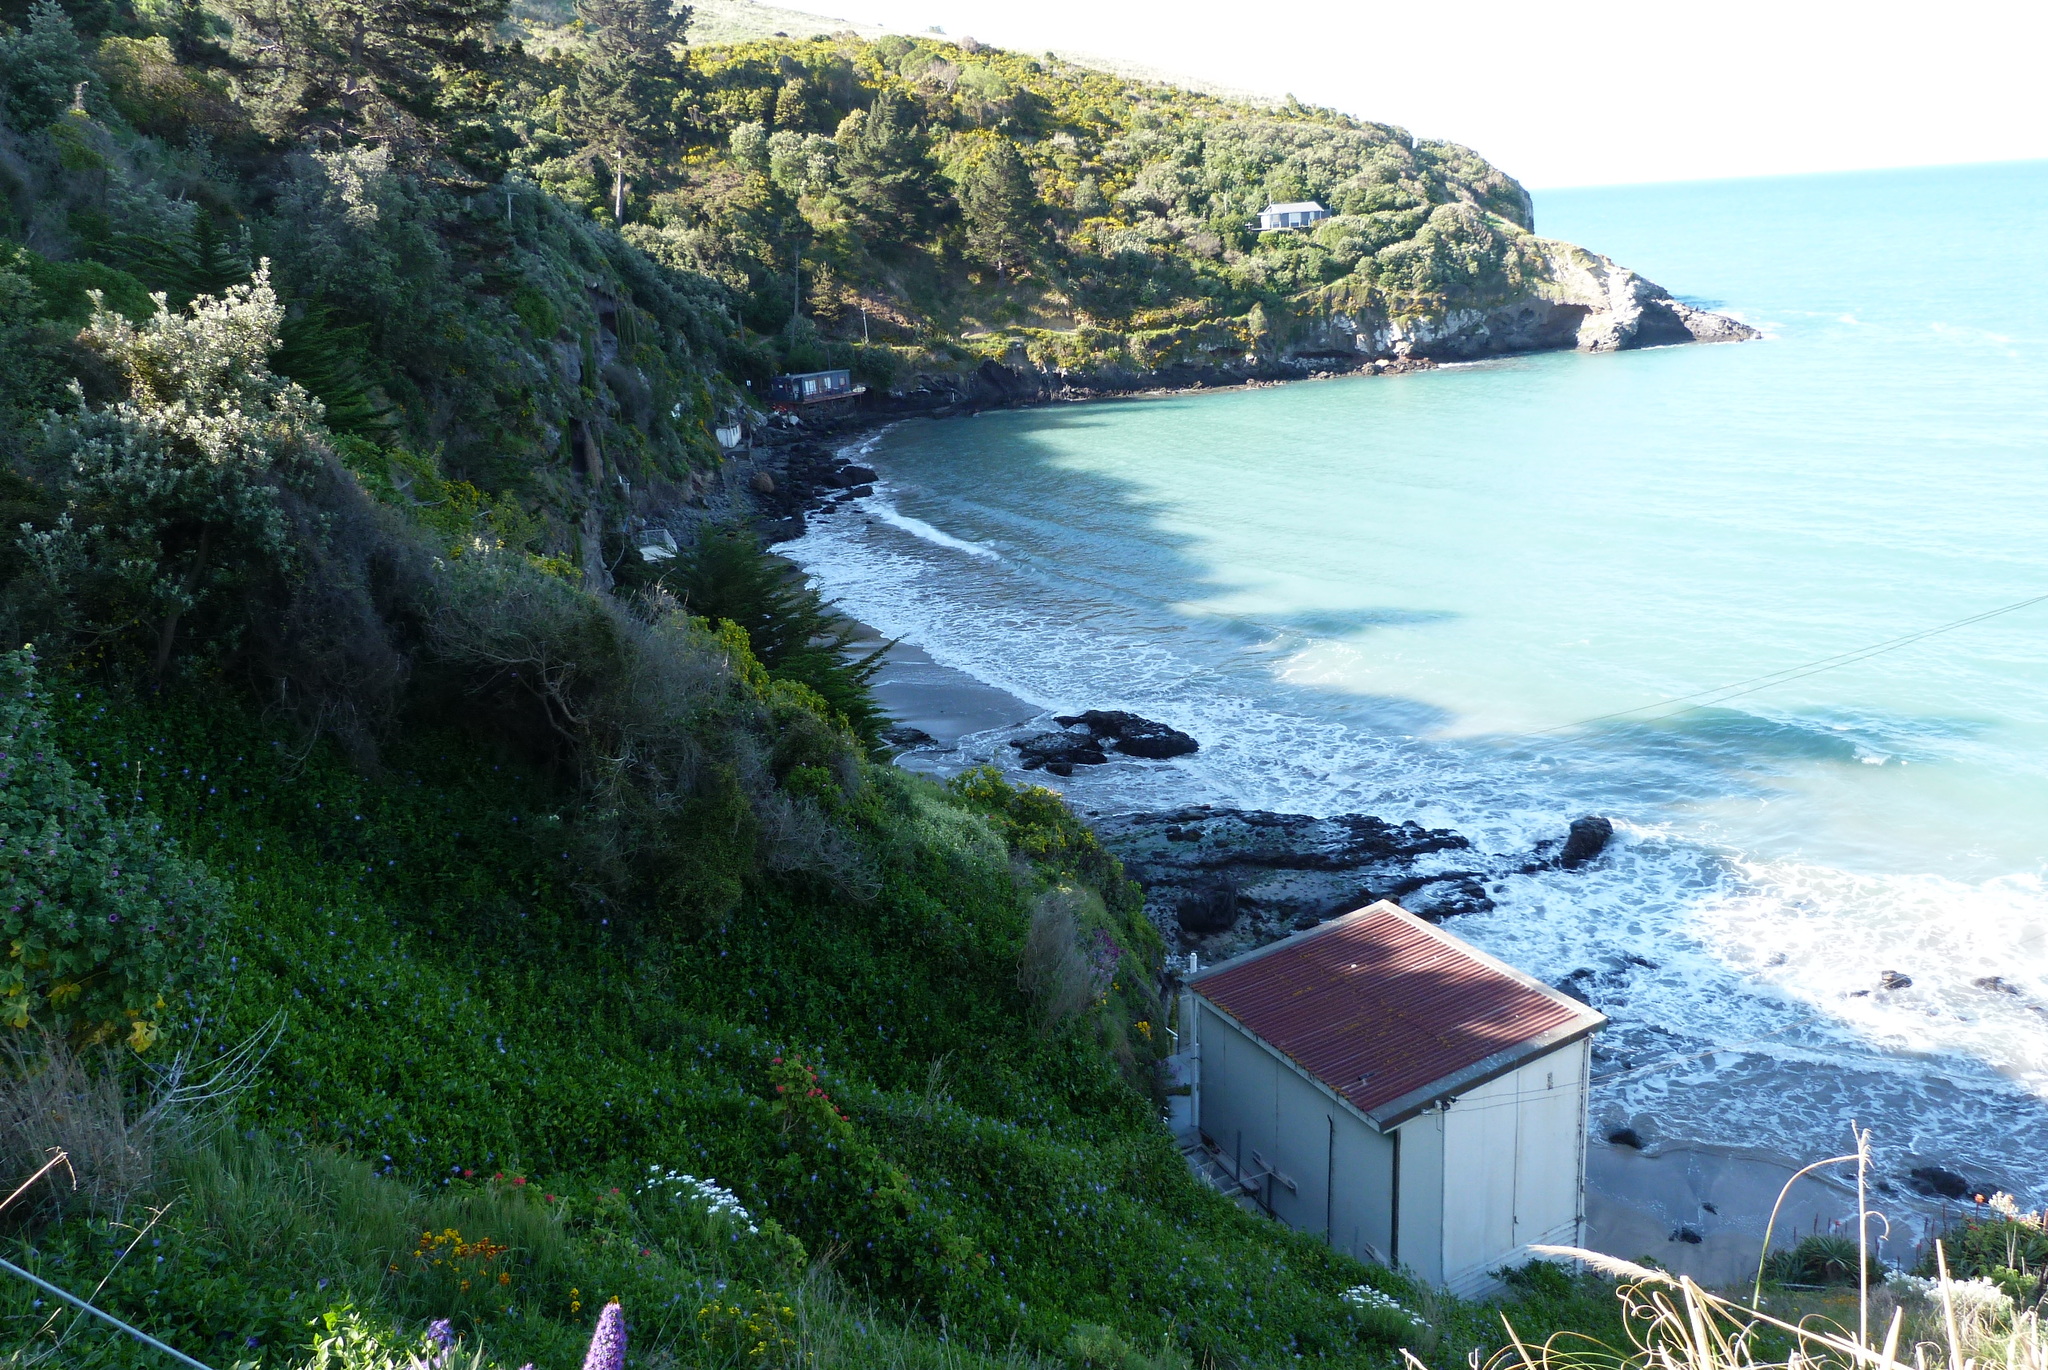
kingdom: Plantae
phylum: Tracheophyta
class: Magnoliopsida
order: Gentianales
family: Apocynaceae
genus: Vinca
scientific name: Vinca major
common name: Greater periwinkle
